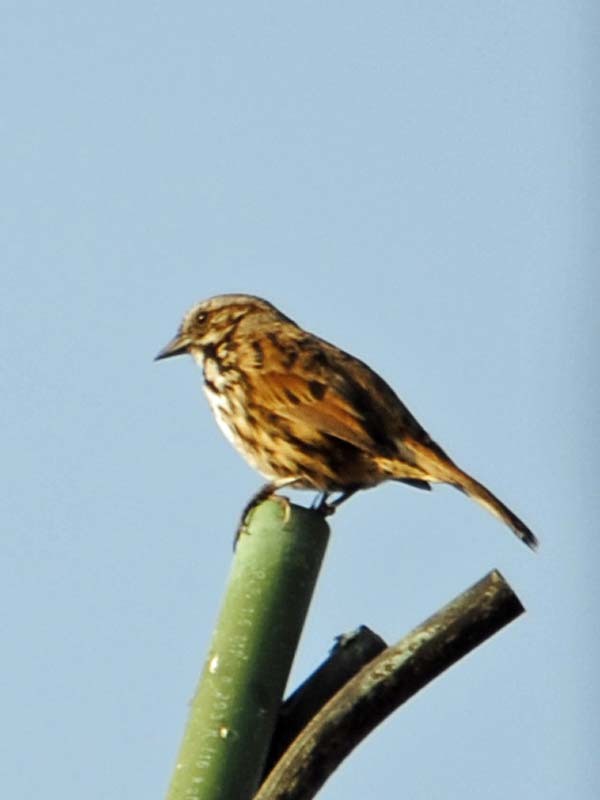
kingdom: Animalia
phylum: Chordata
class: Aves
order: Passeriformes
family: Passerellidae
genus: Melospiza
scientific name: Melospiza melodia
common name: Song sparrow
